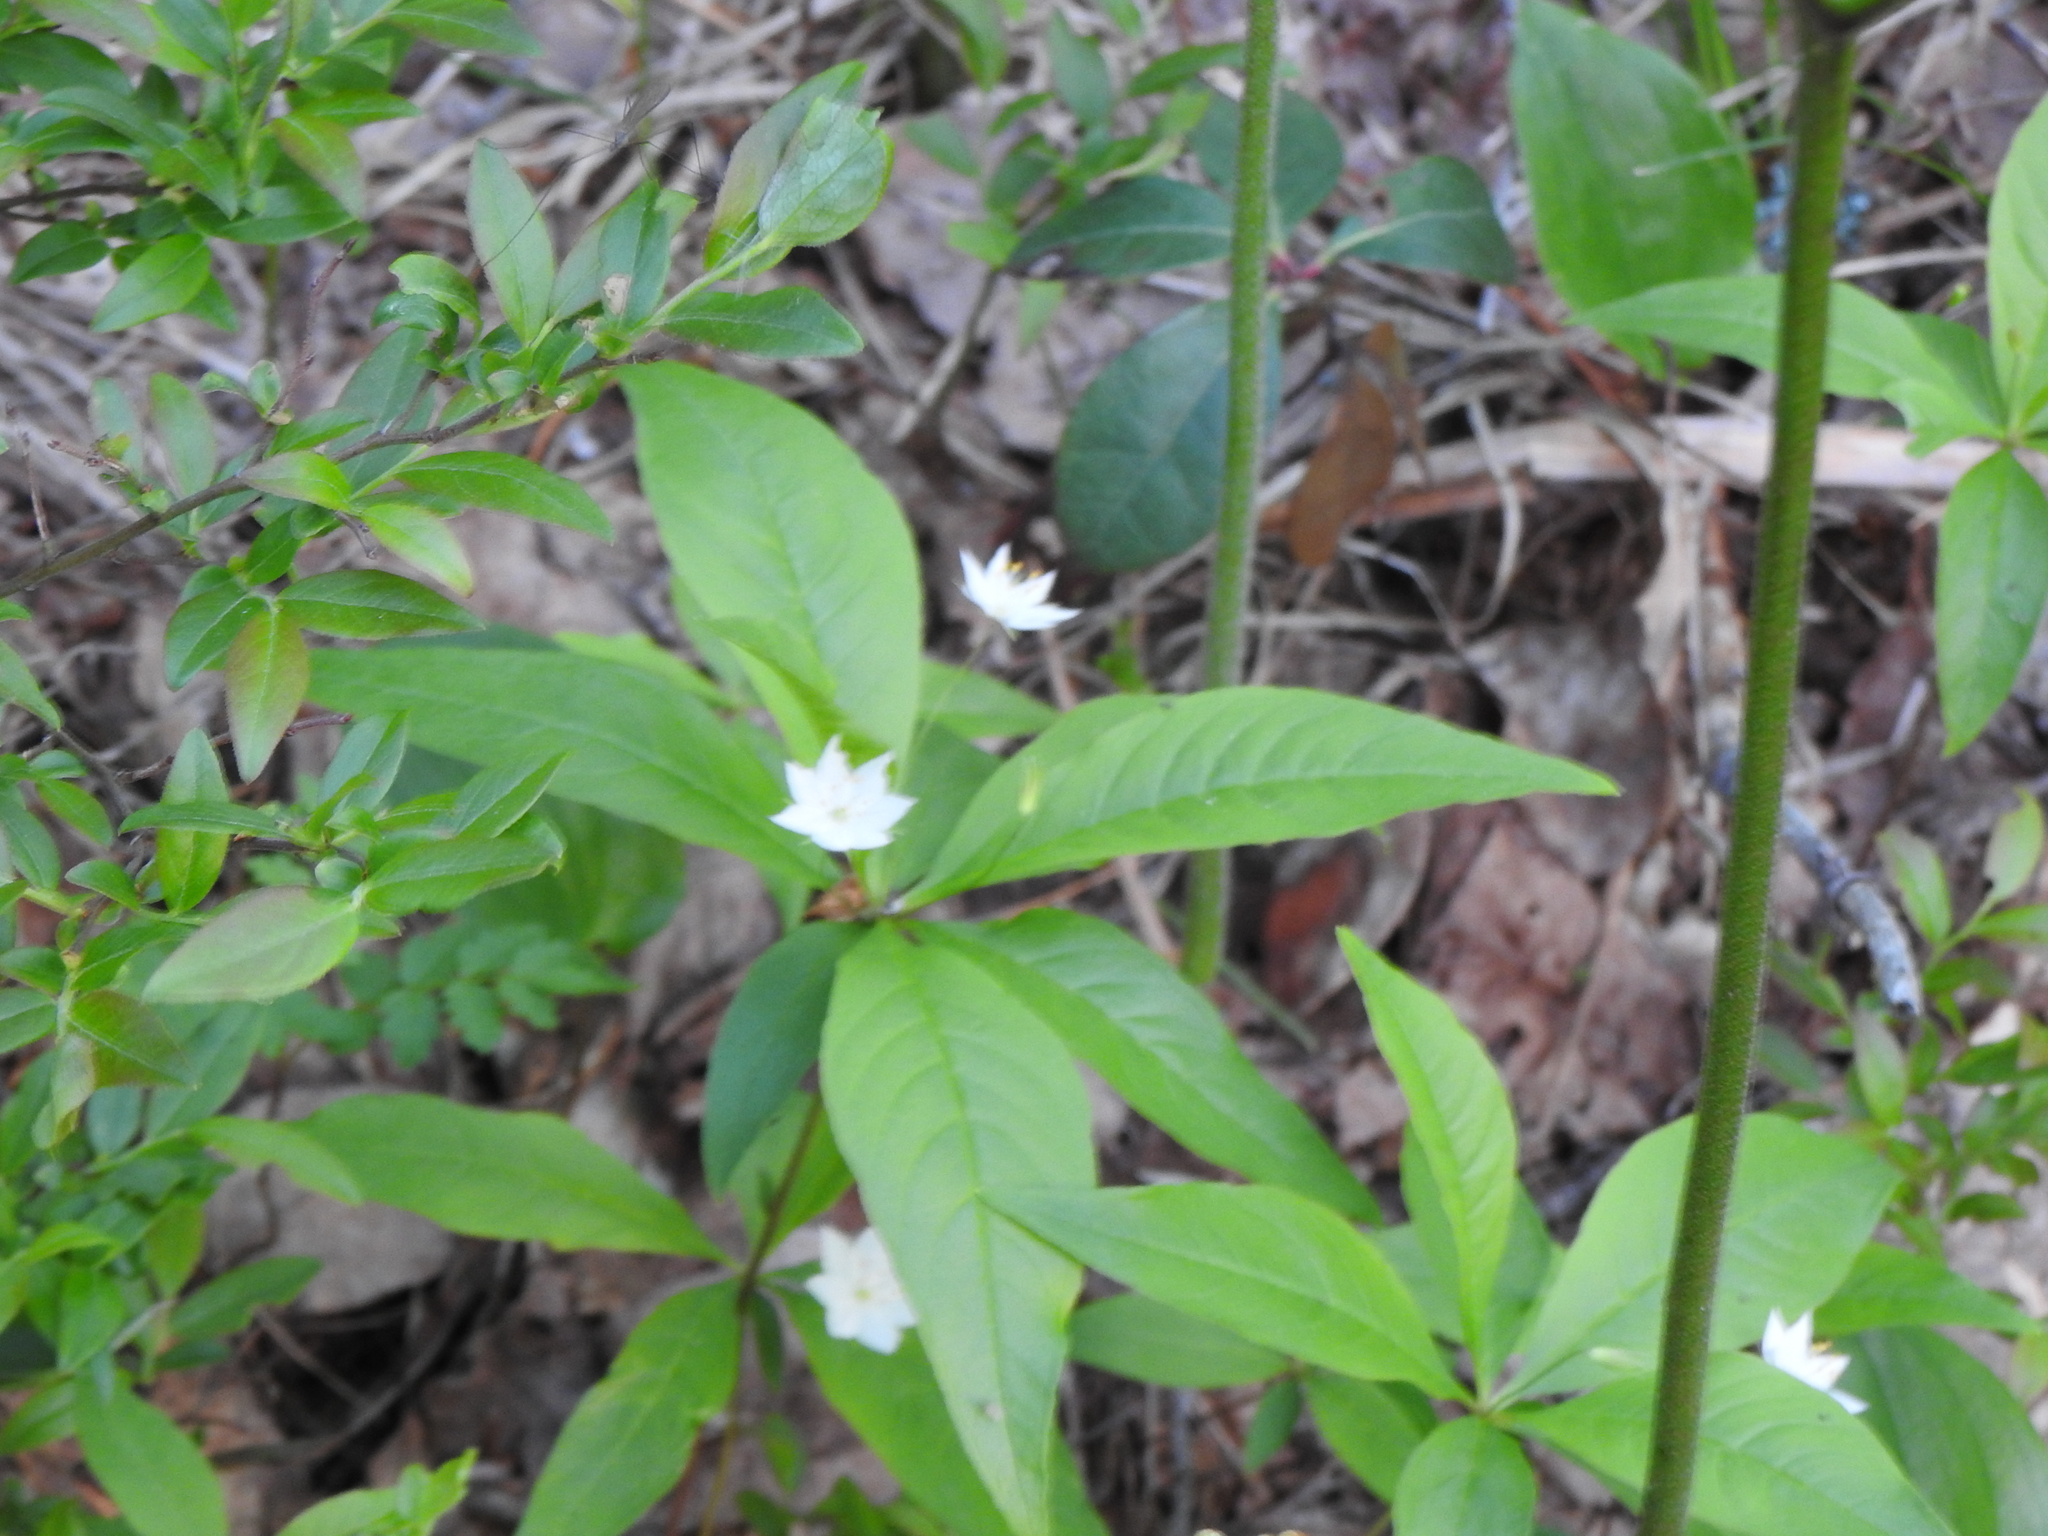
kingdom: Plantae
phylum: Tracheophyta
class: Magnoliopsida
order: Ericales
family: Primulaceae
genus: Lysimachia
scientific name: Lysimachia borealis
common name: American starflower
